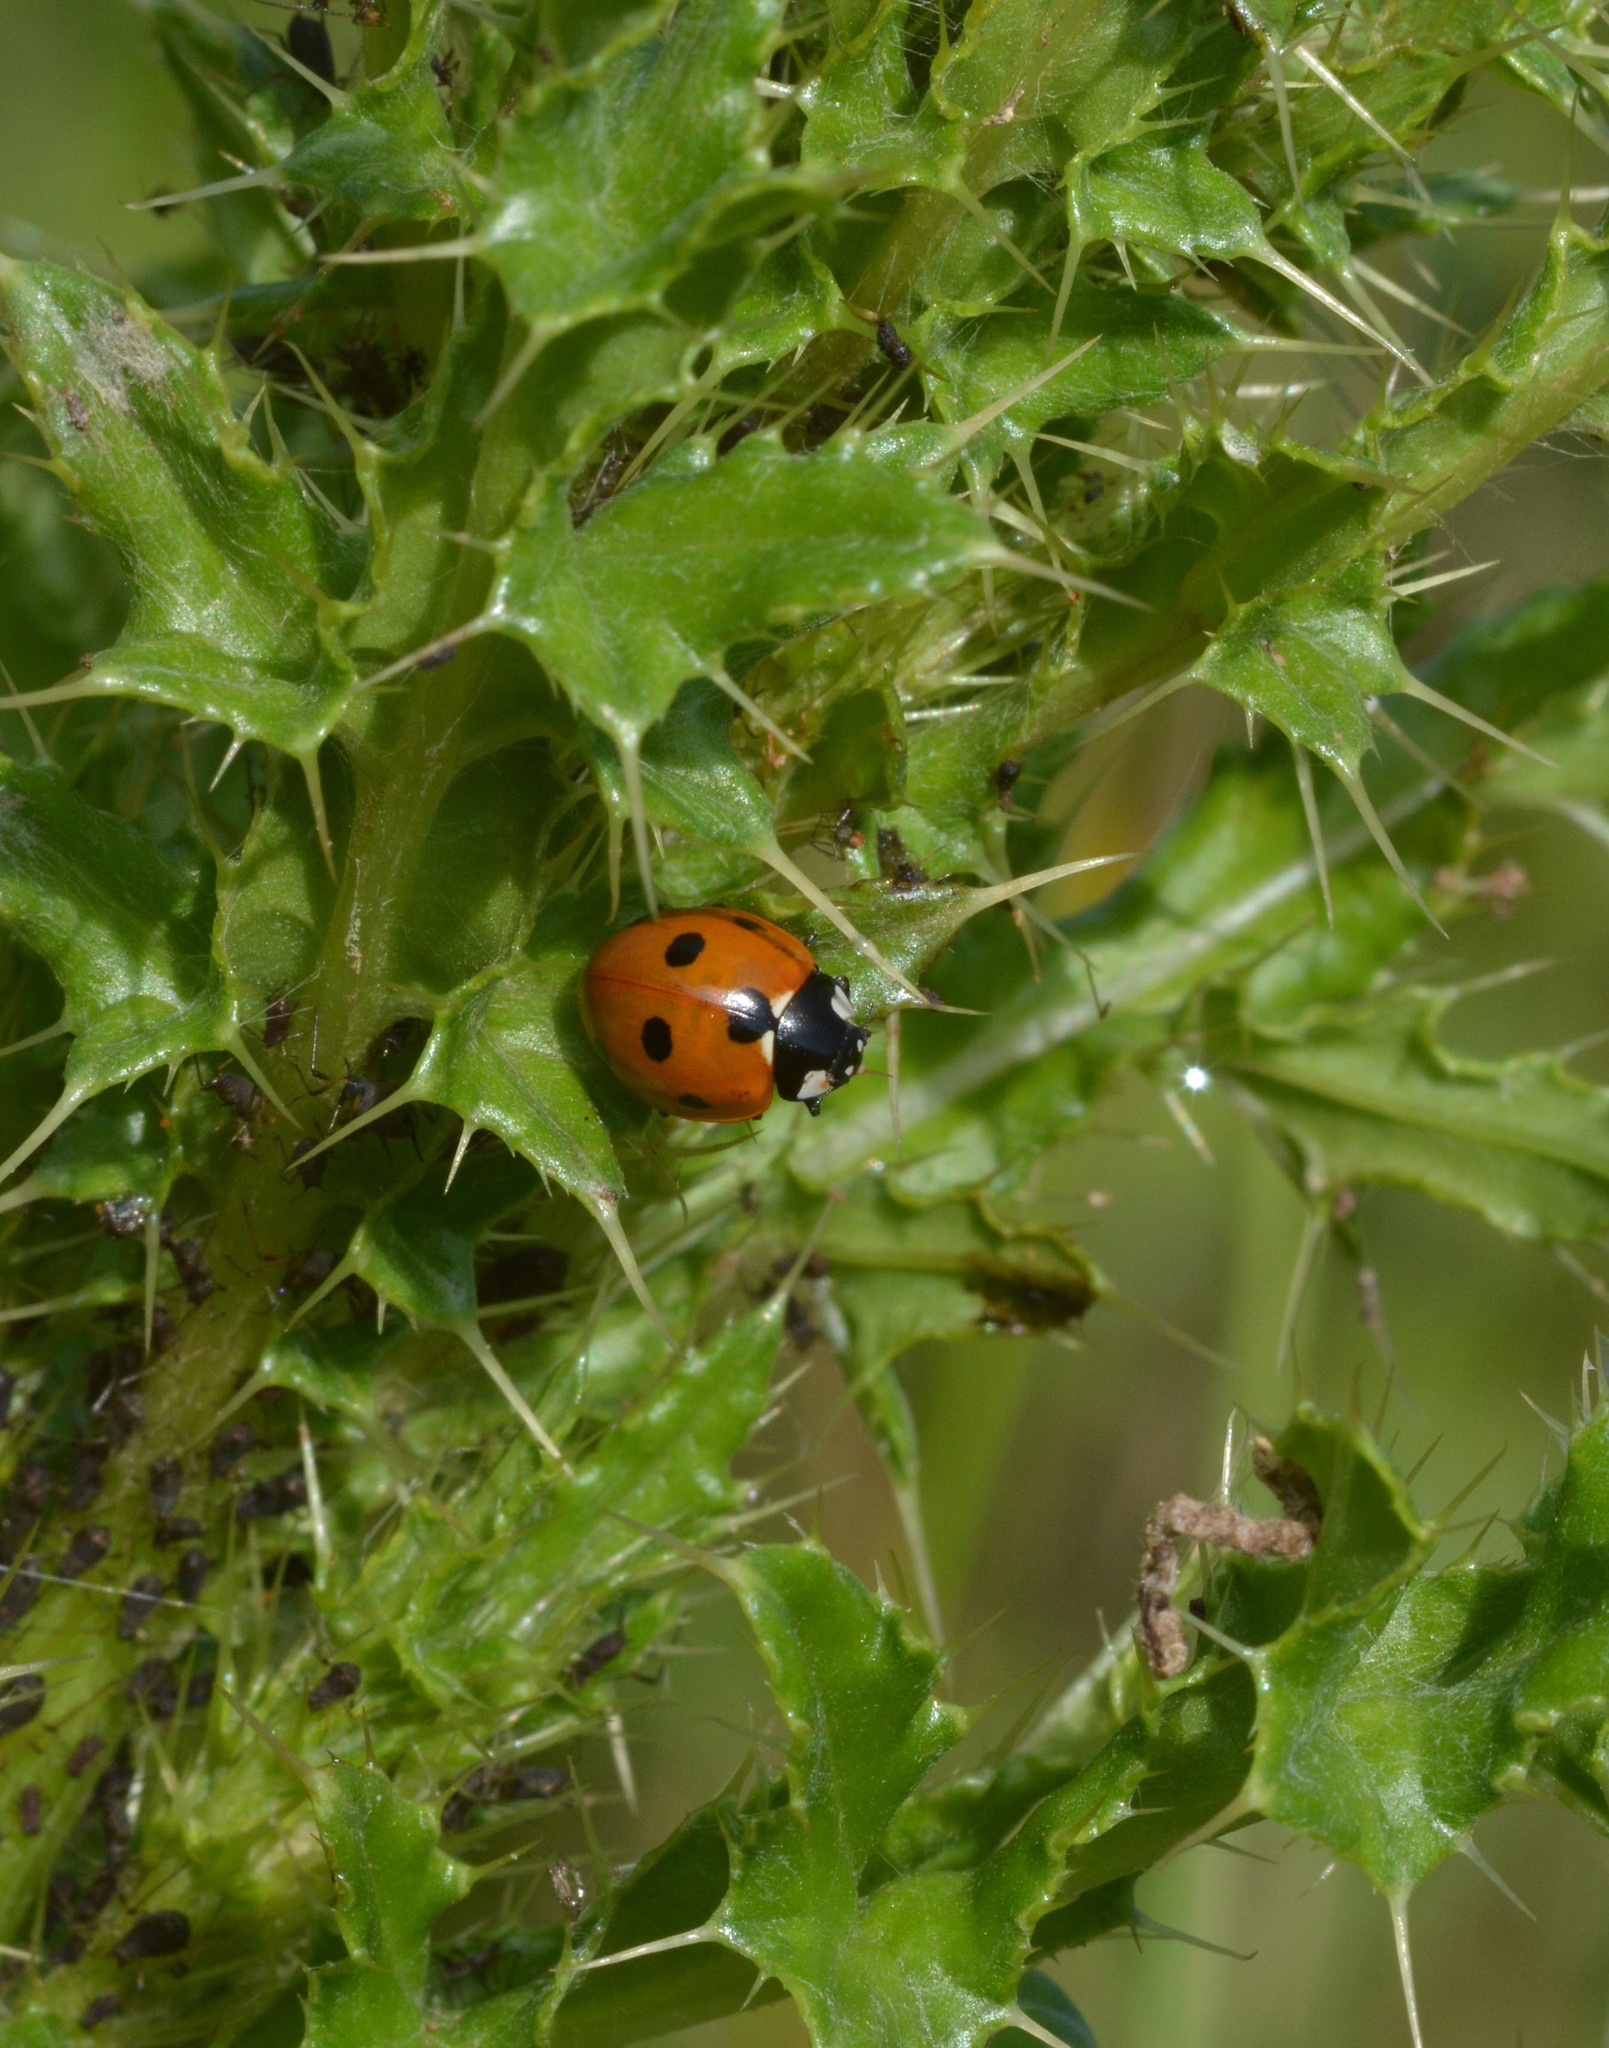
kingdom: Animalia
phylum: Arthropoda
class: Insecta
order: Coleoptera
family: Coccinellidae
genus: Coccinella
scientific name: Coccinella septempunctata
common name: Sevenspotted lady beetle
